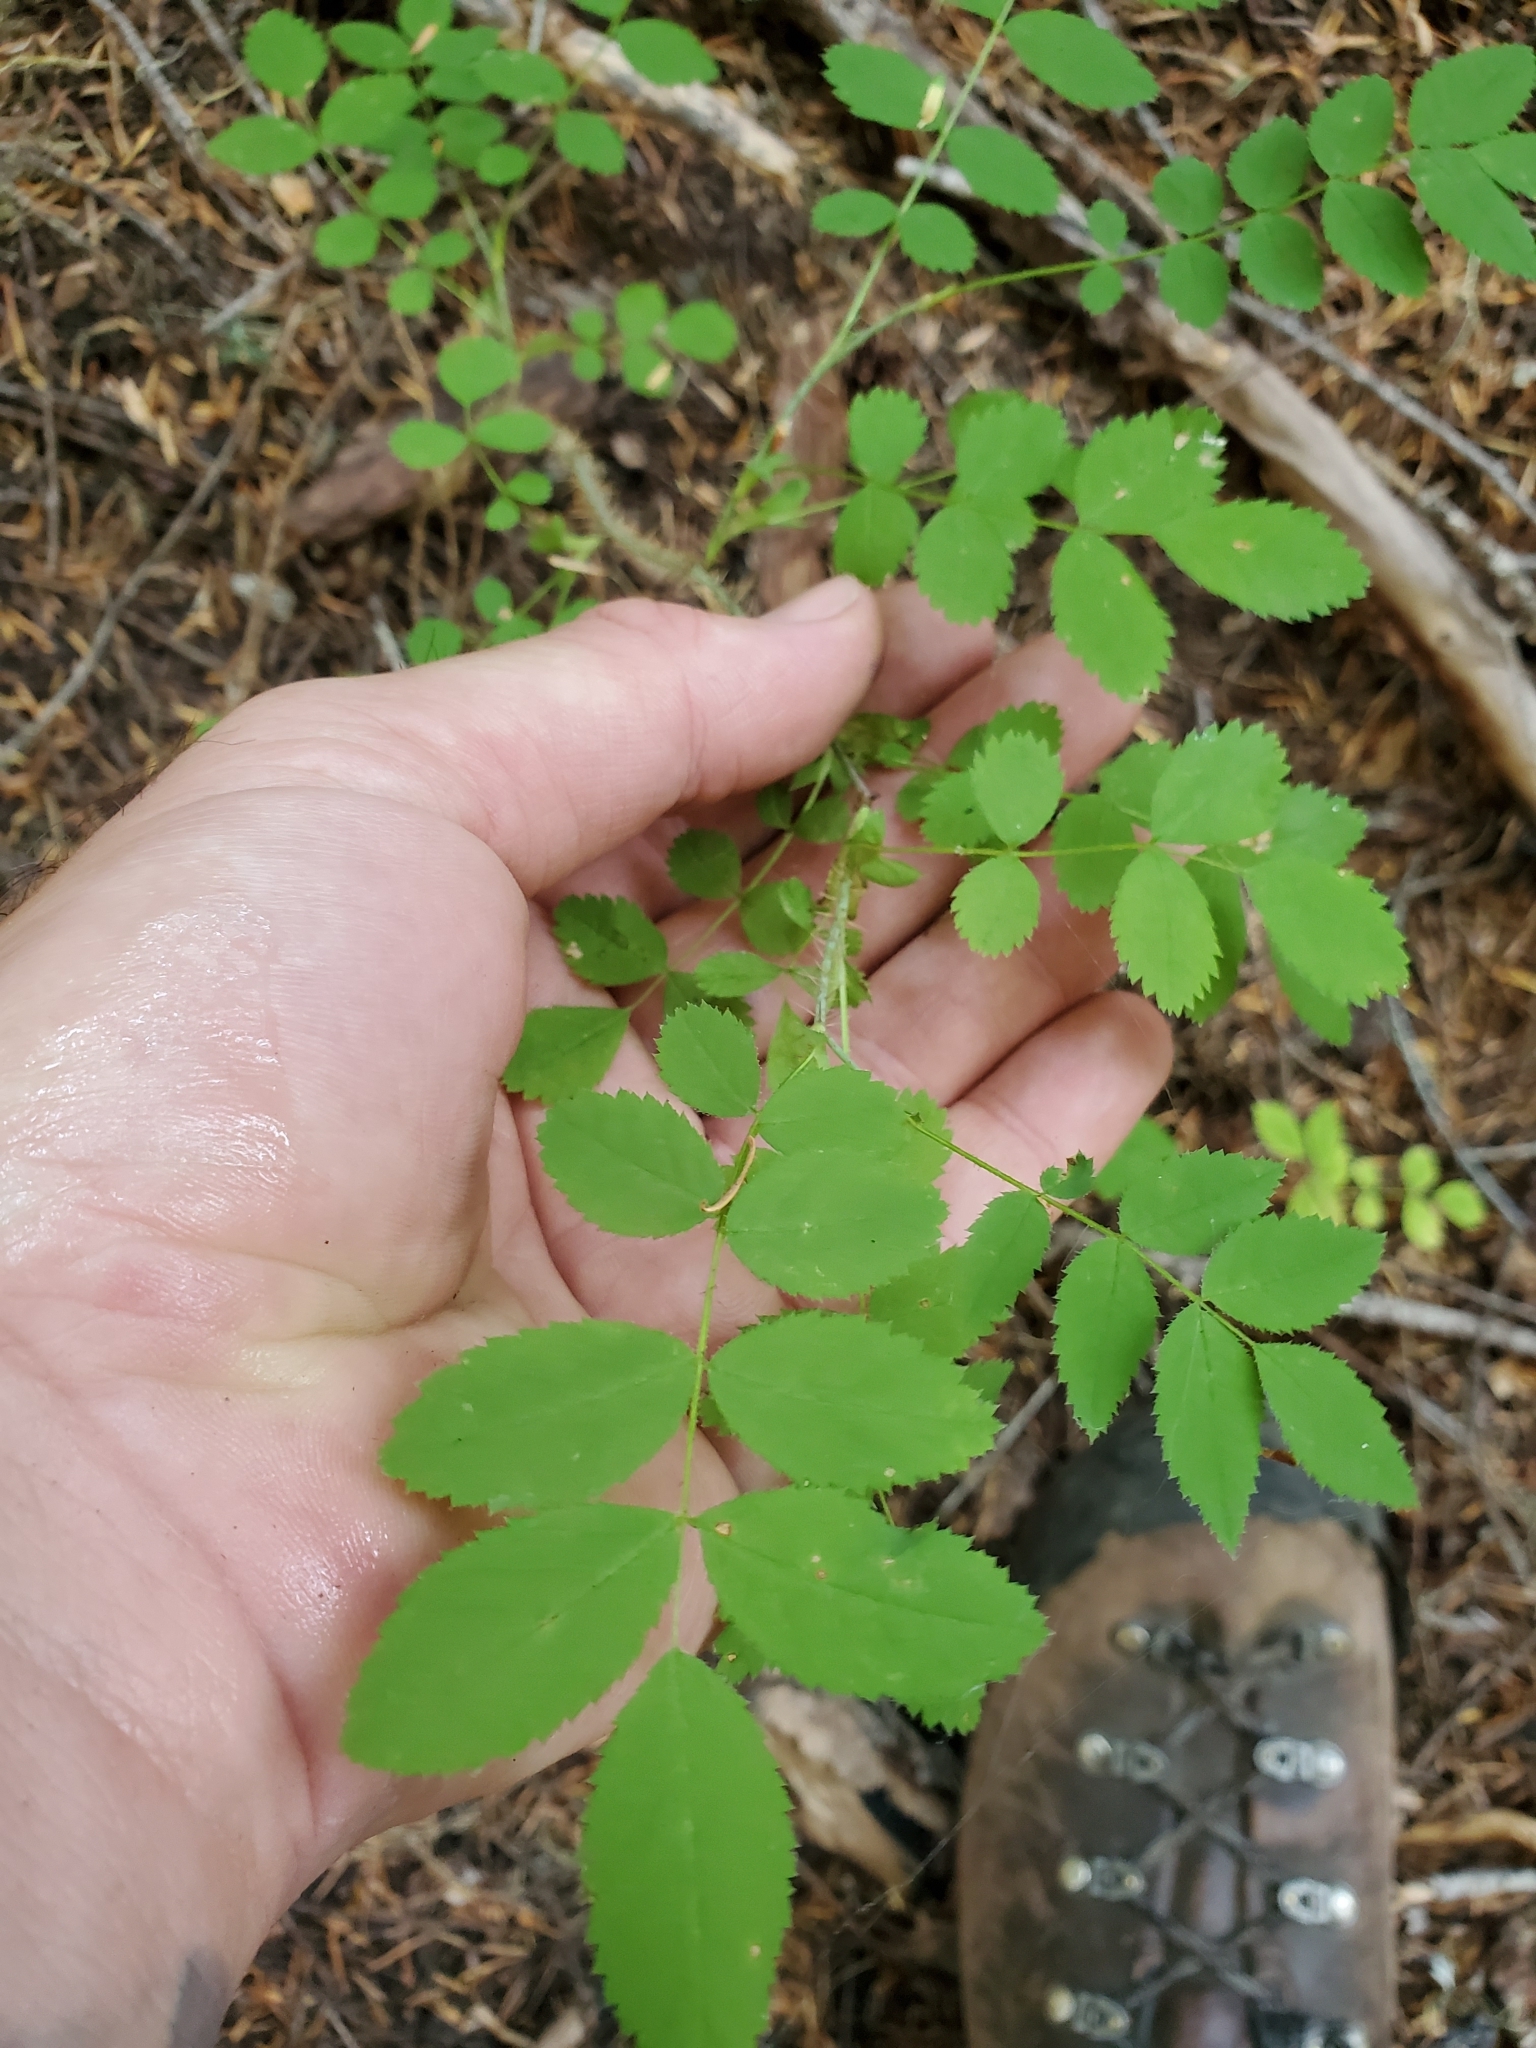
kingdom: Plantae
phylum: Tracheophyta
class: Magnoliopsida
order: Rosales
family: Rosaceae
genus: Rosa
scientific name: Rosa gymnocarpa
